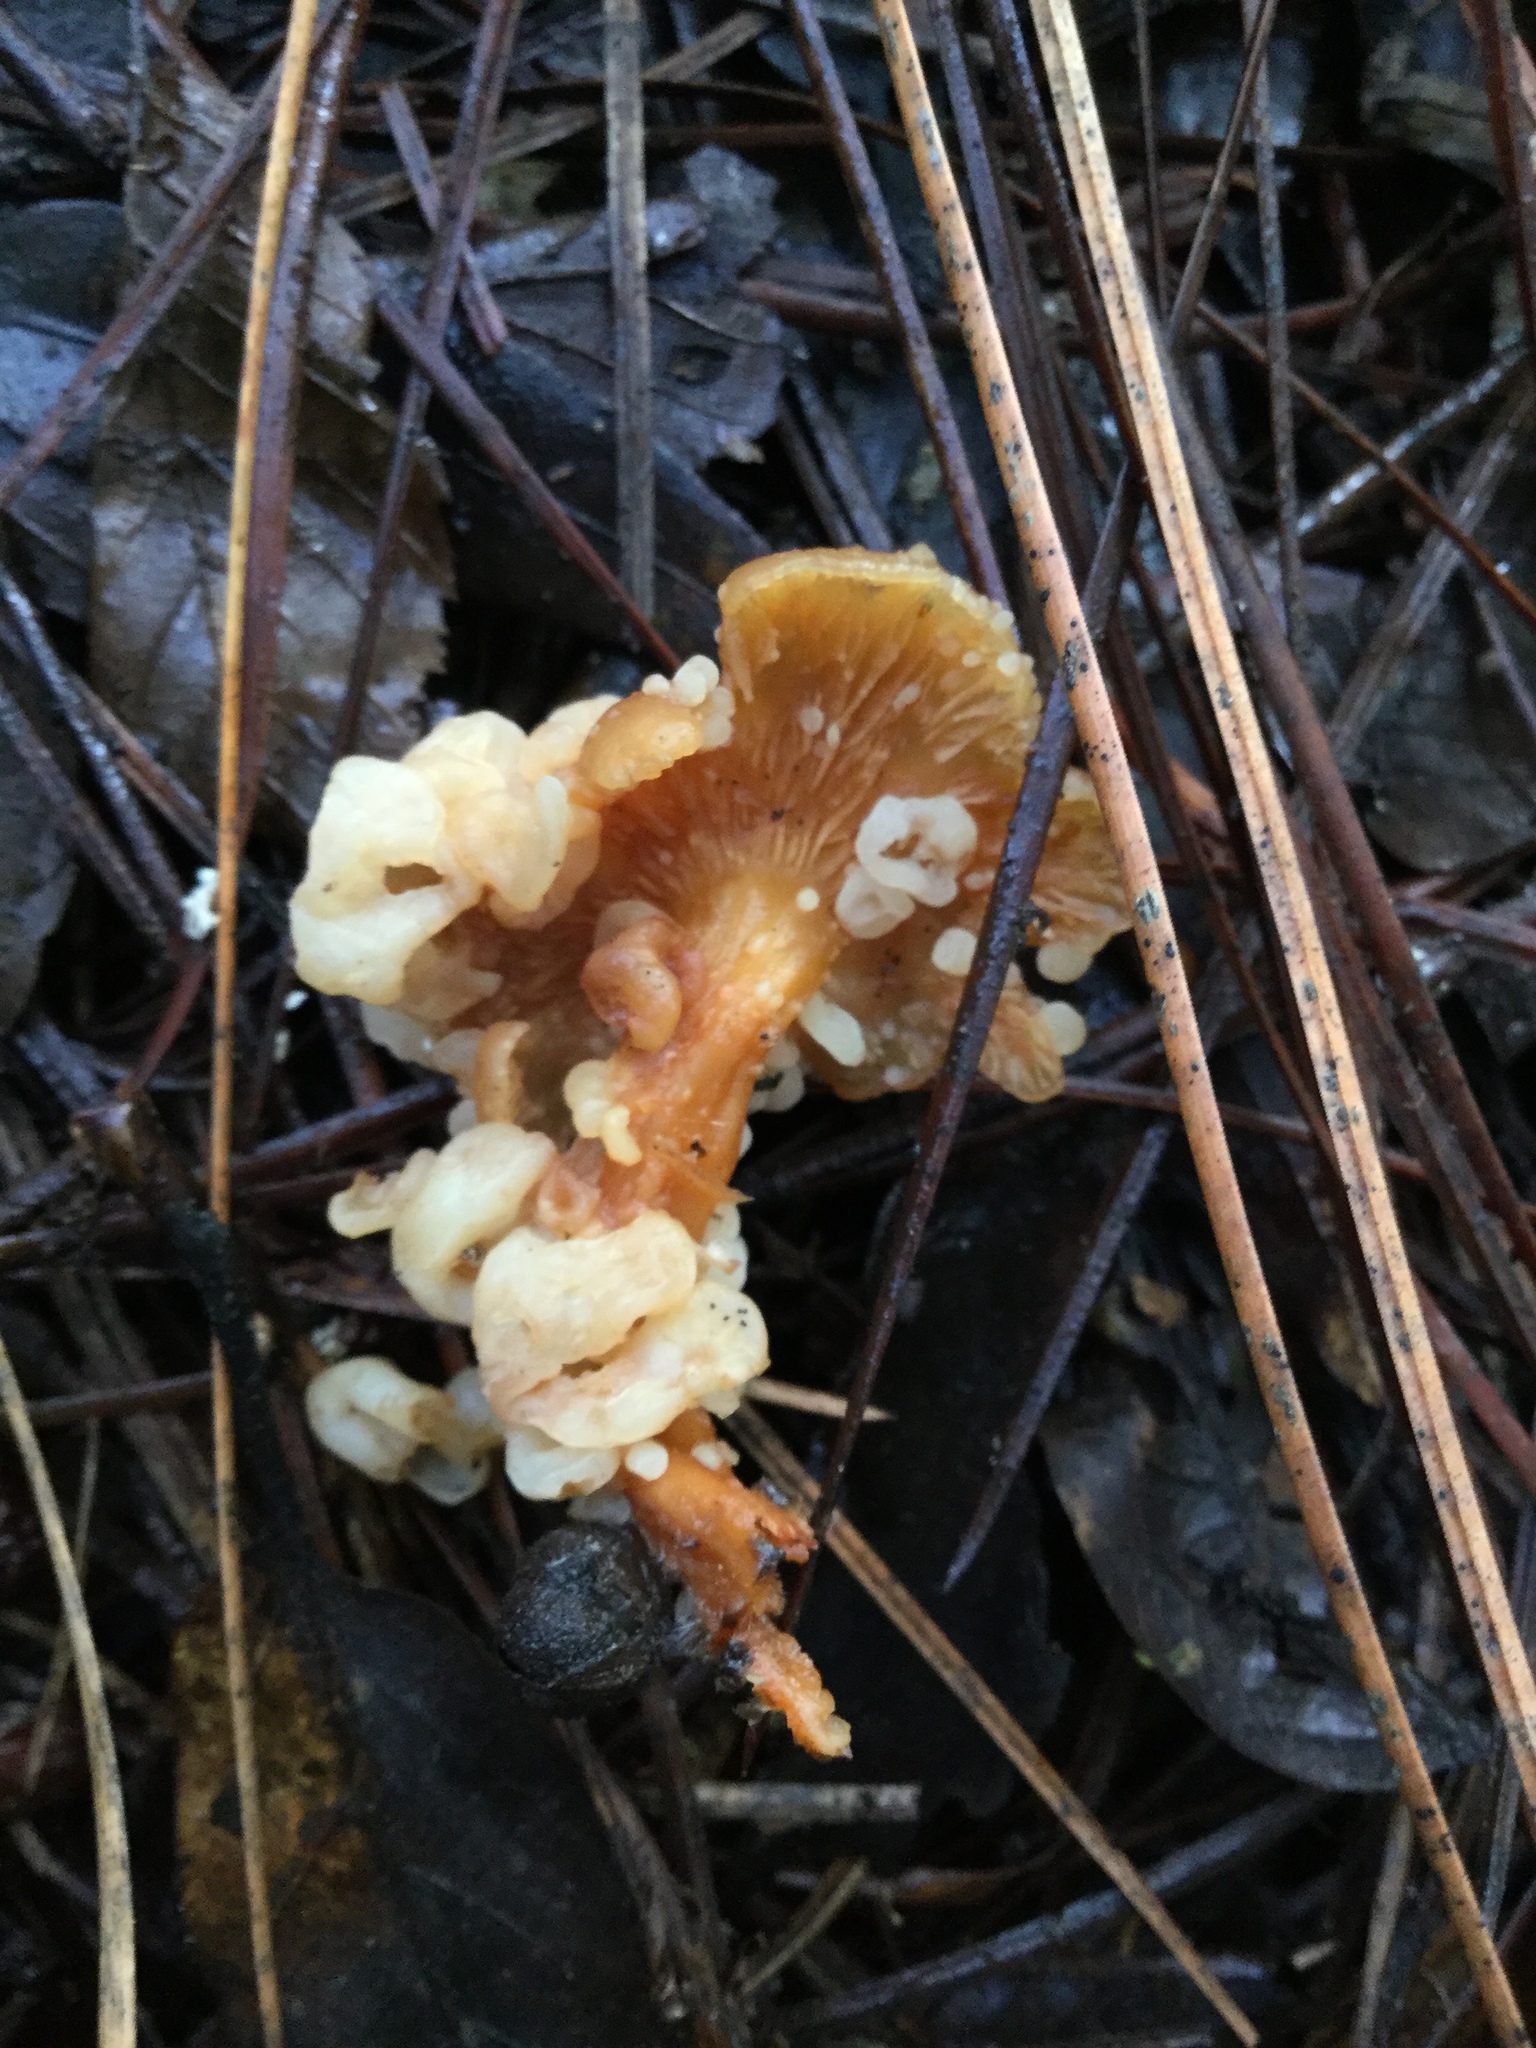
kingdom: Fungi
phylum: Basidiomycota
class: Tremellomycetes
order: Filobasidiales
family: Filobasidiaceae
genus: Syzygospora
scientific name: Syzygospora mycetophila
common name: Collybia clouds
